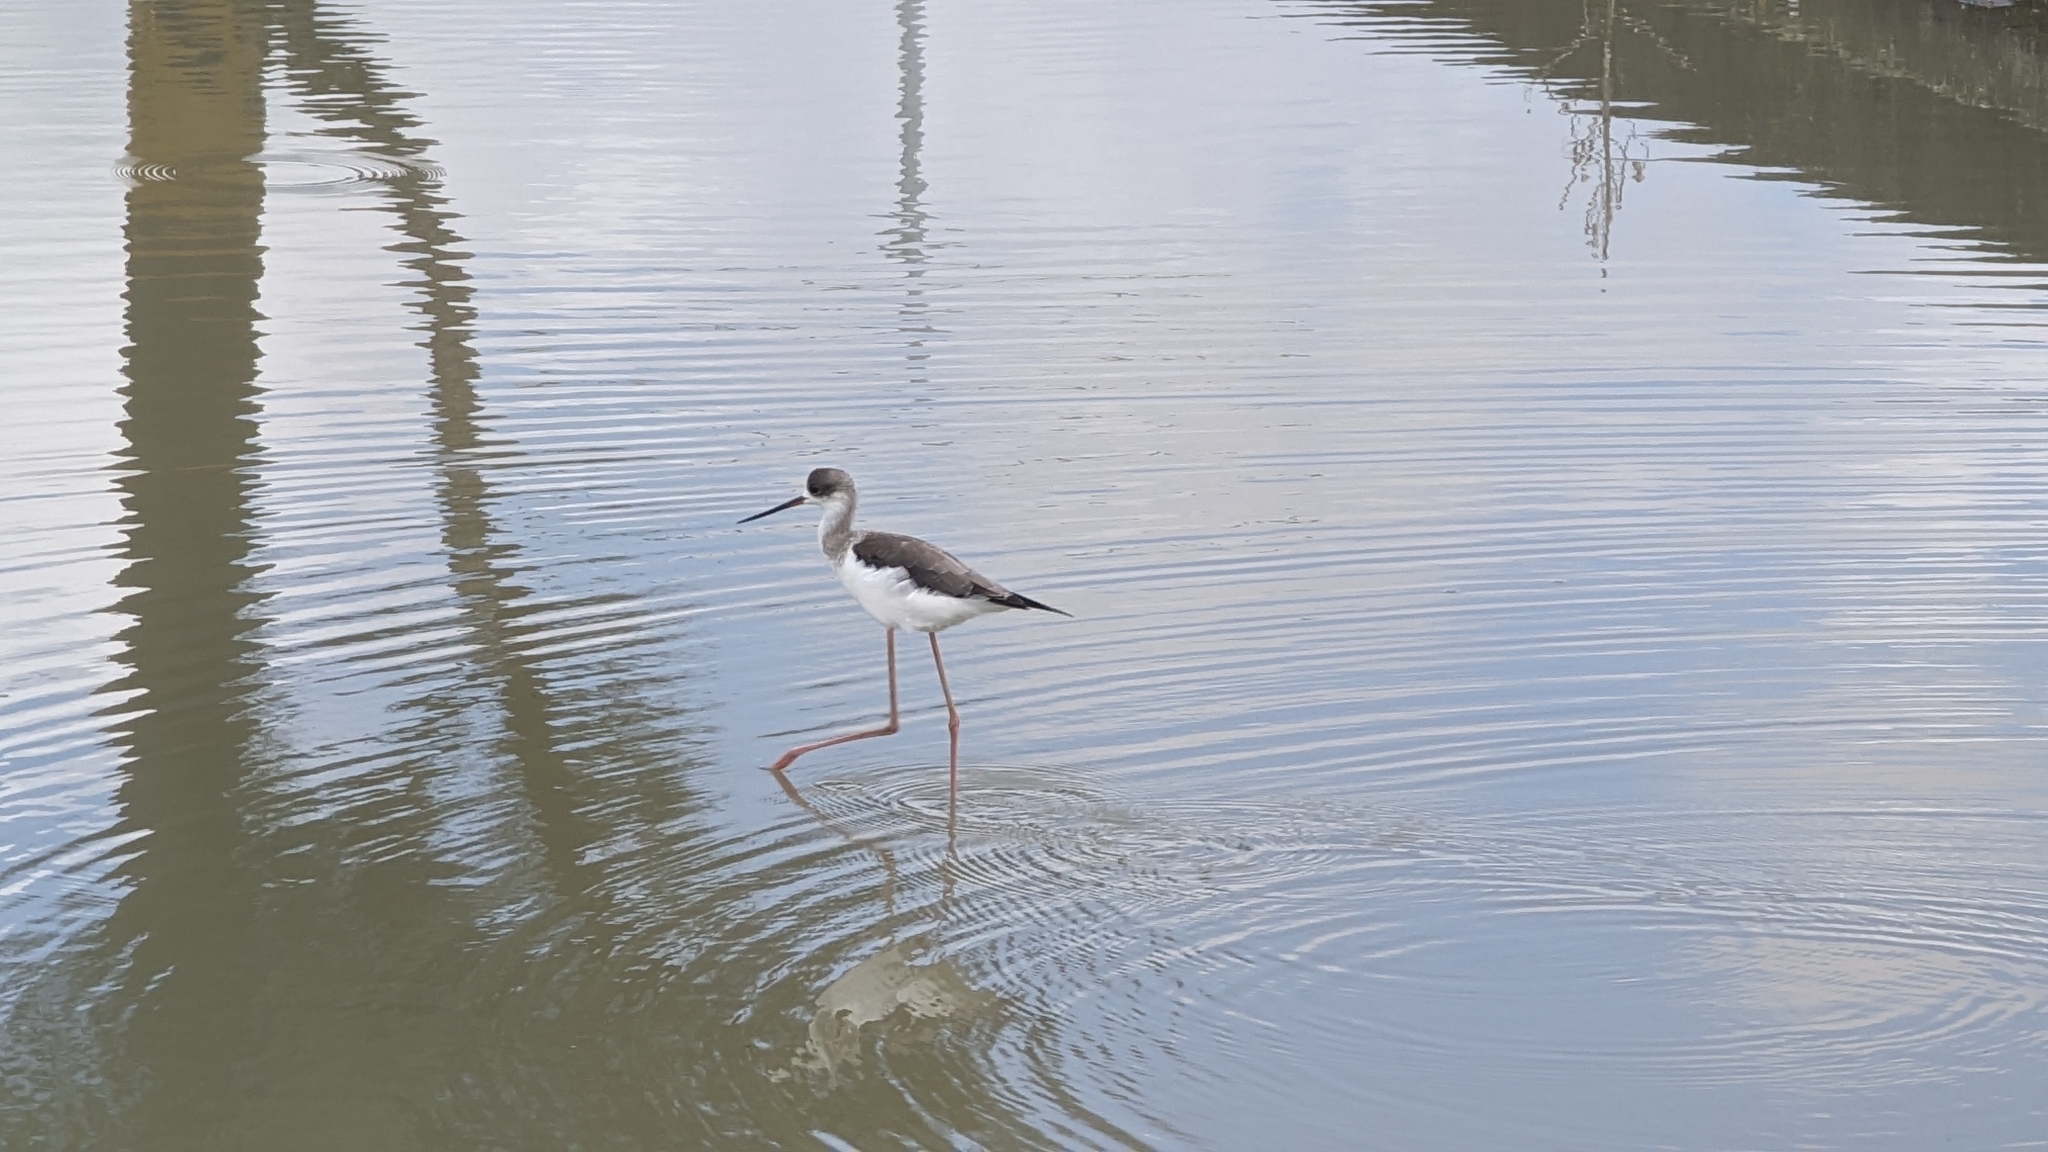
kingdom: Animalia
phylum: Chordata
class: Aves
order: Charadriiformes
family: Recurvirostridae
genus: Himantopus
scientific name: Himantopus himantopus
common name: Black-winged stilt
